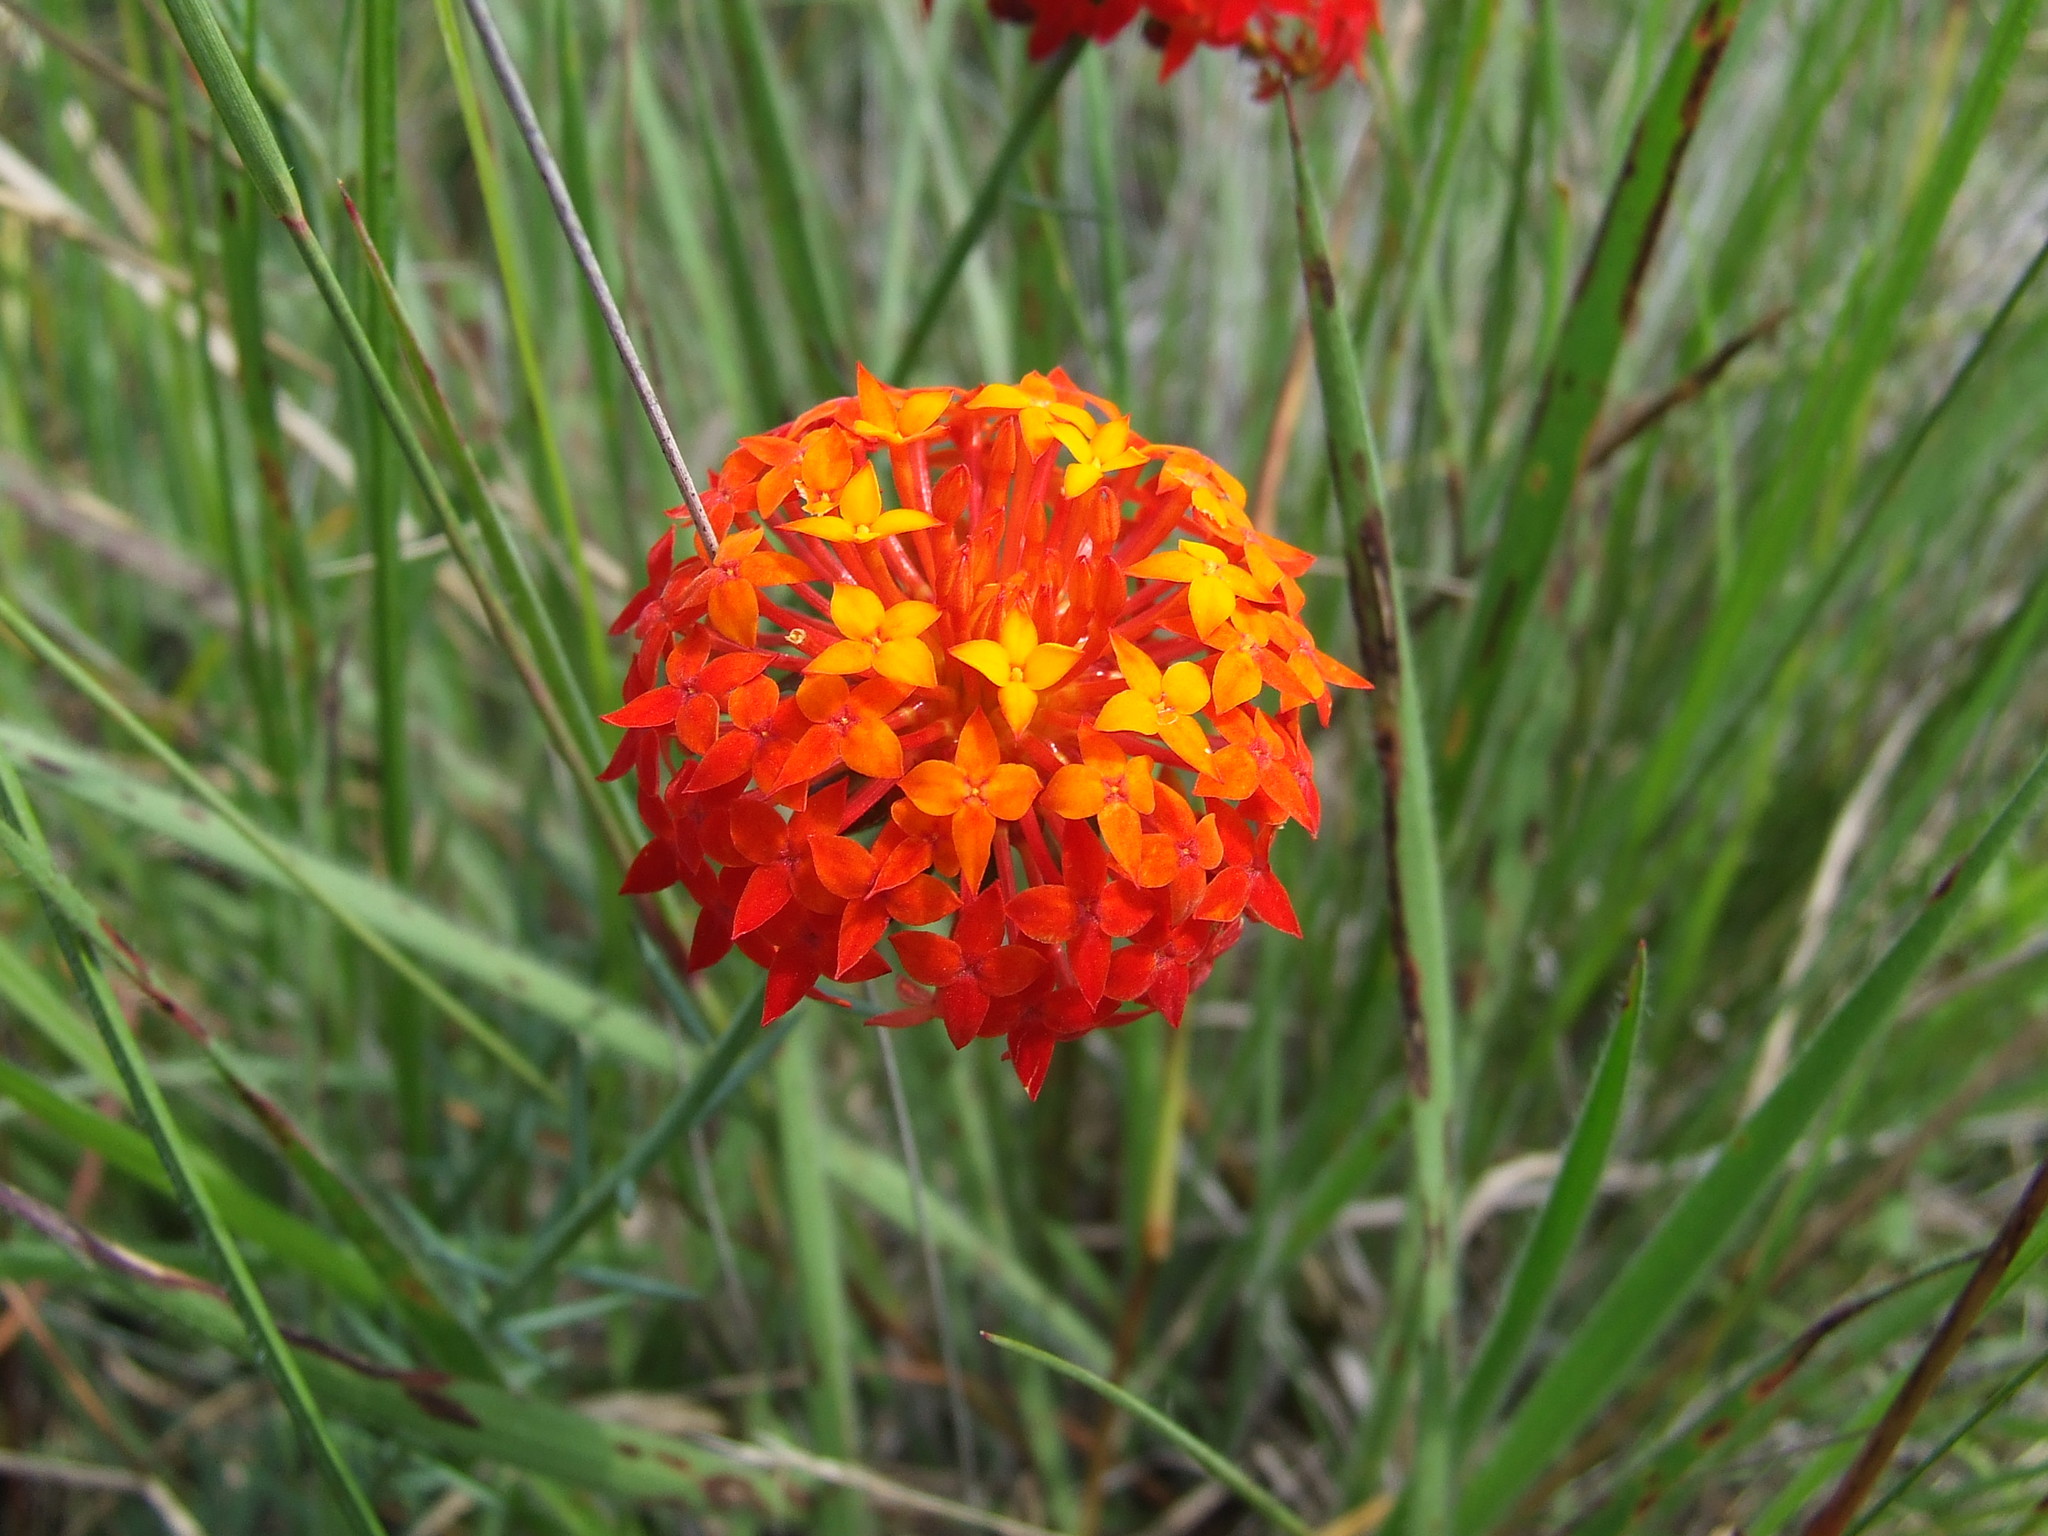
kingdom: Plantae
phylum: Tracheophyta
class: Magnoliopsida
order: Malvales
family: Thymelaeaceae
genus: Gnidia
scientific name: Gnidia chrysantha
